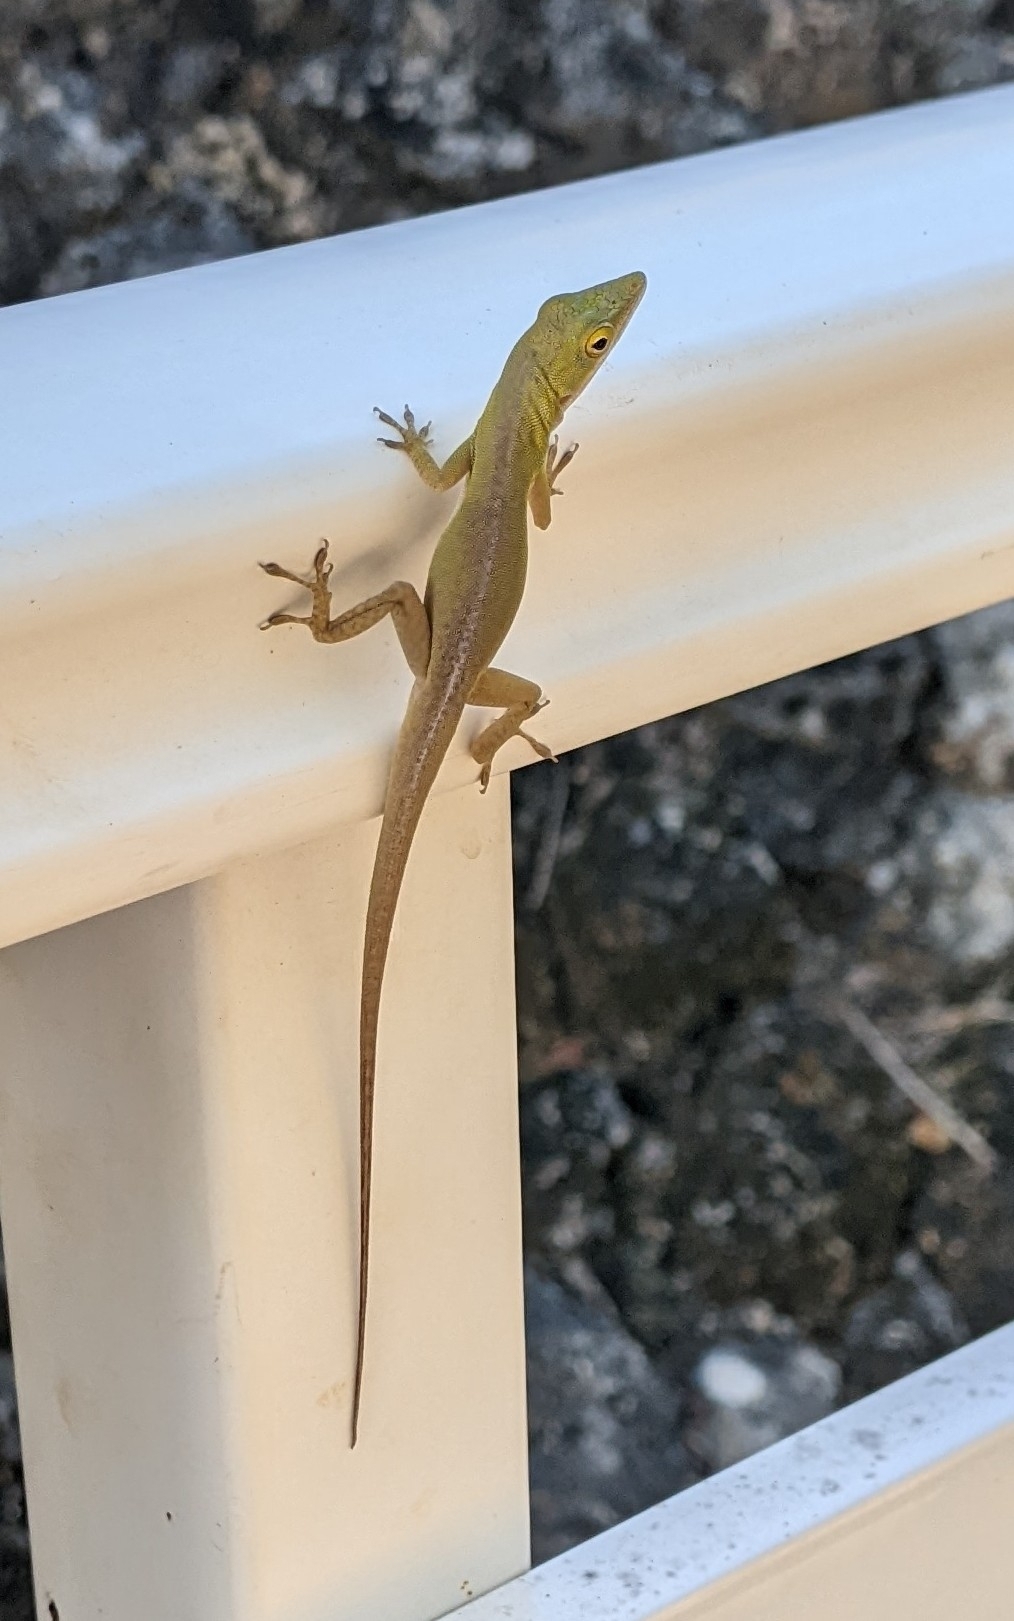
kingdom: Animalia
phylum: Chordata
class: Squamata
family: Dactyloidae
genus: Anolis
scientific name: Anolis porcatus
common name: Cuban green anole
